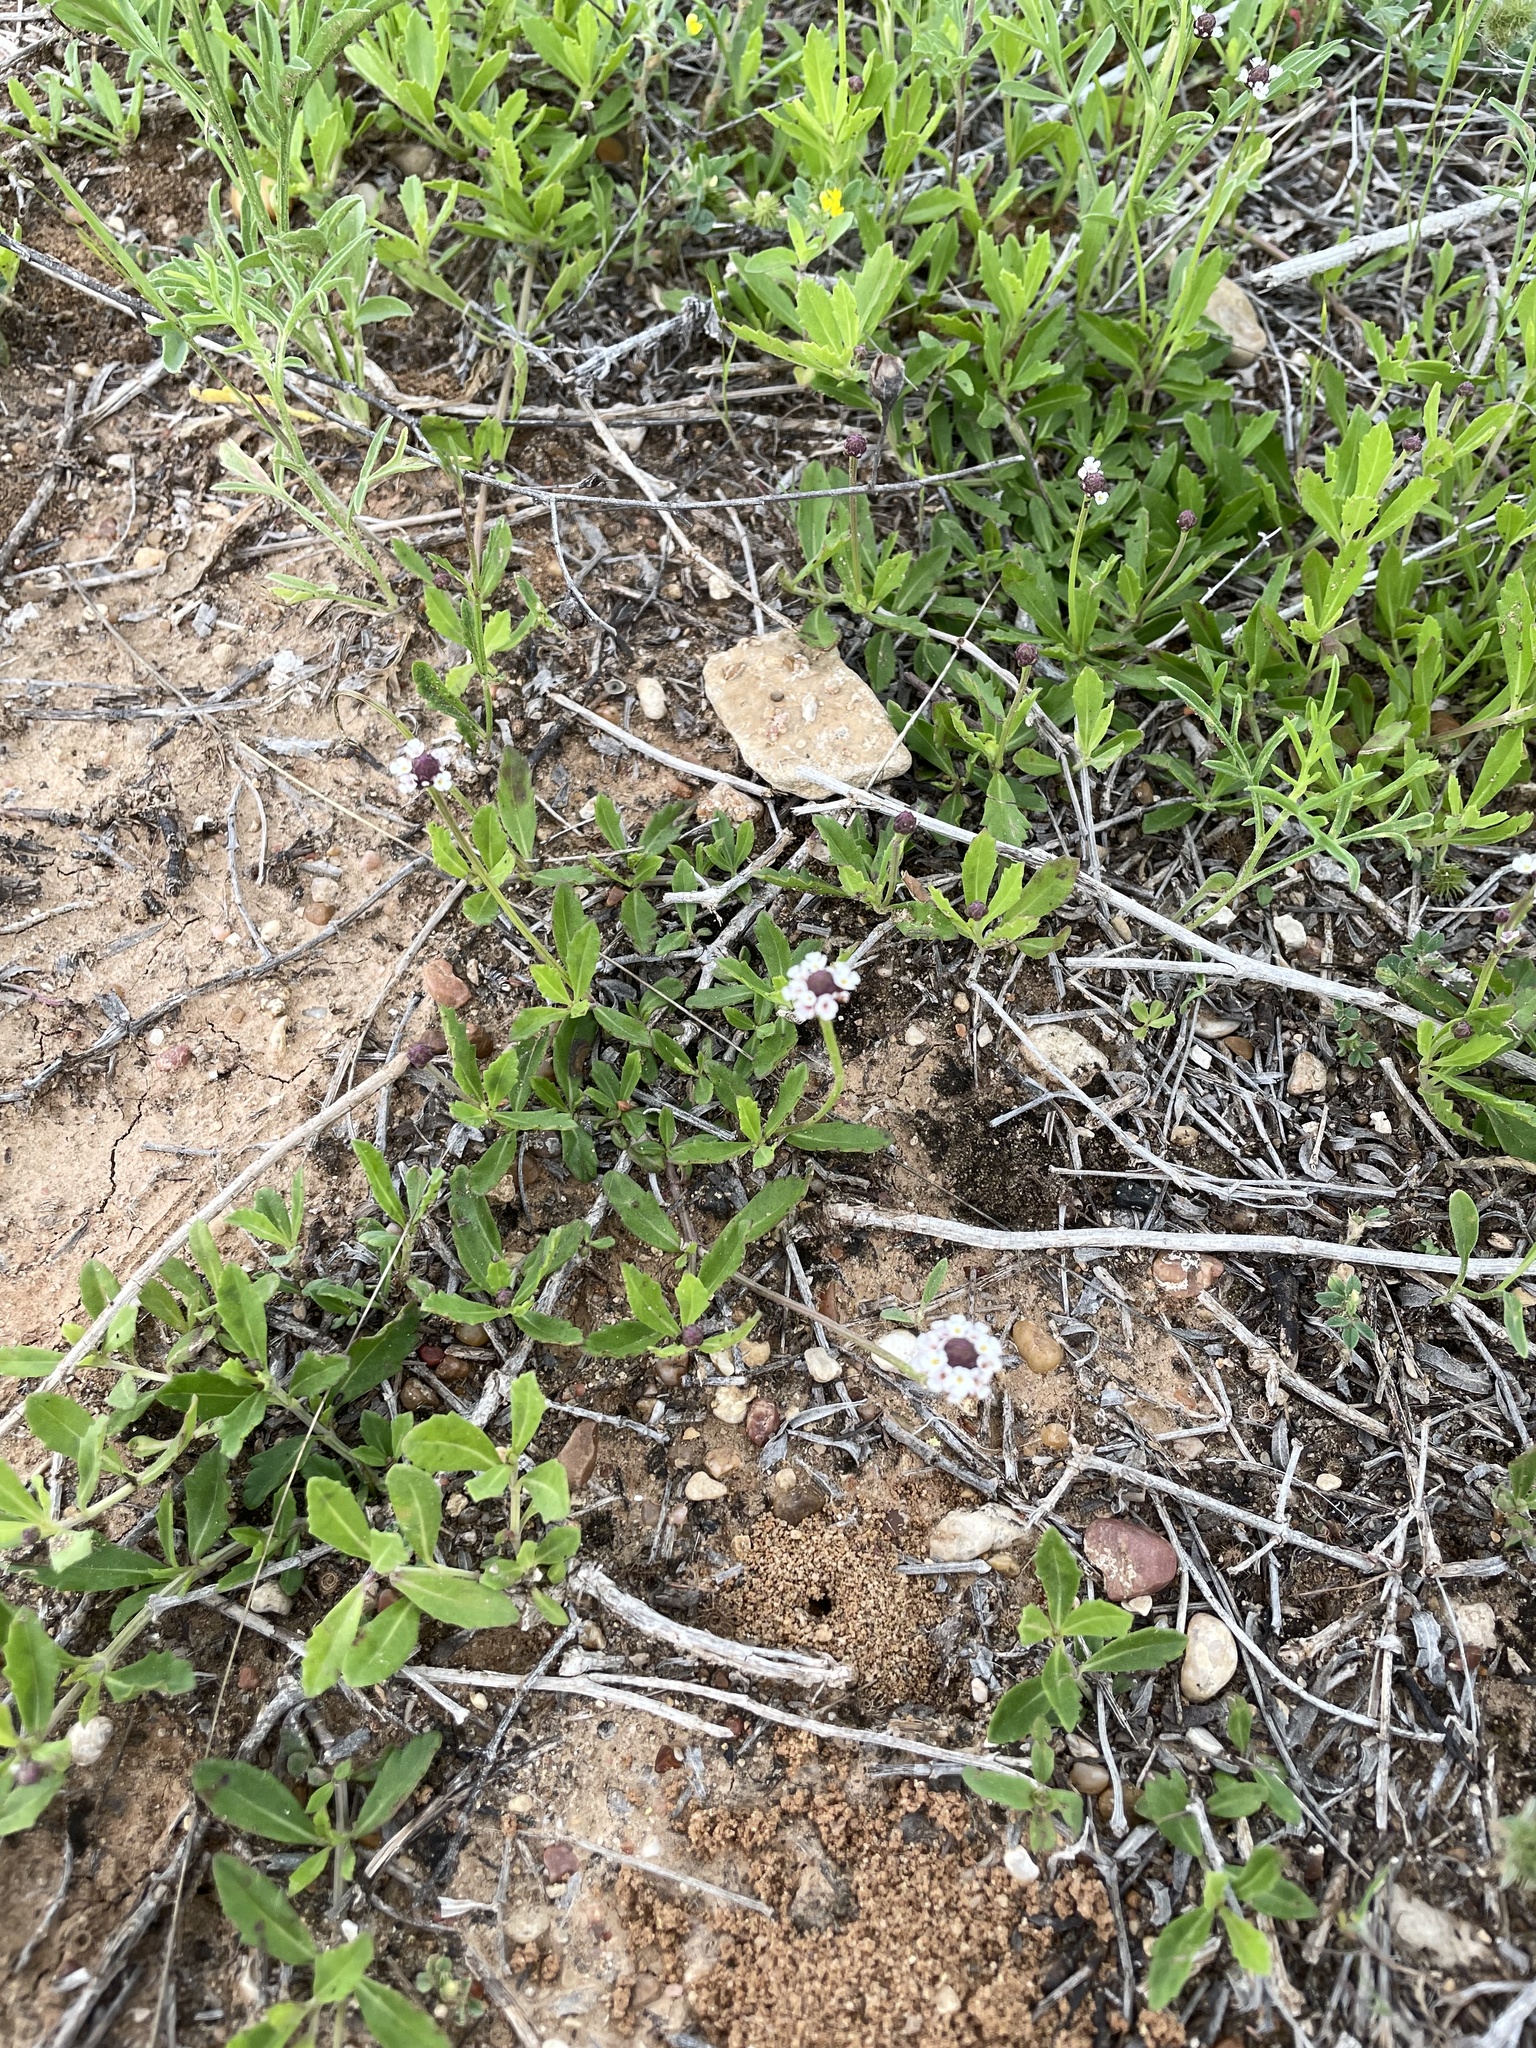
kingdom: Plantae
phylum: Tracheophyta
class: Magnoliopsida
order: Lamiales
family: Verbenaceae
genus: Phyla
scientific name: Phyla nodiflora
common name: Frogfruit
